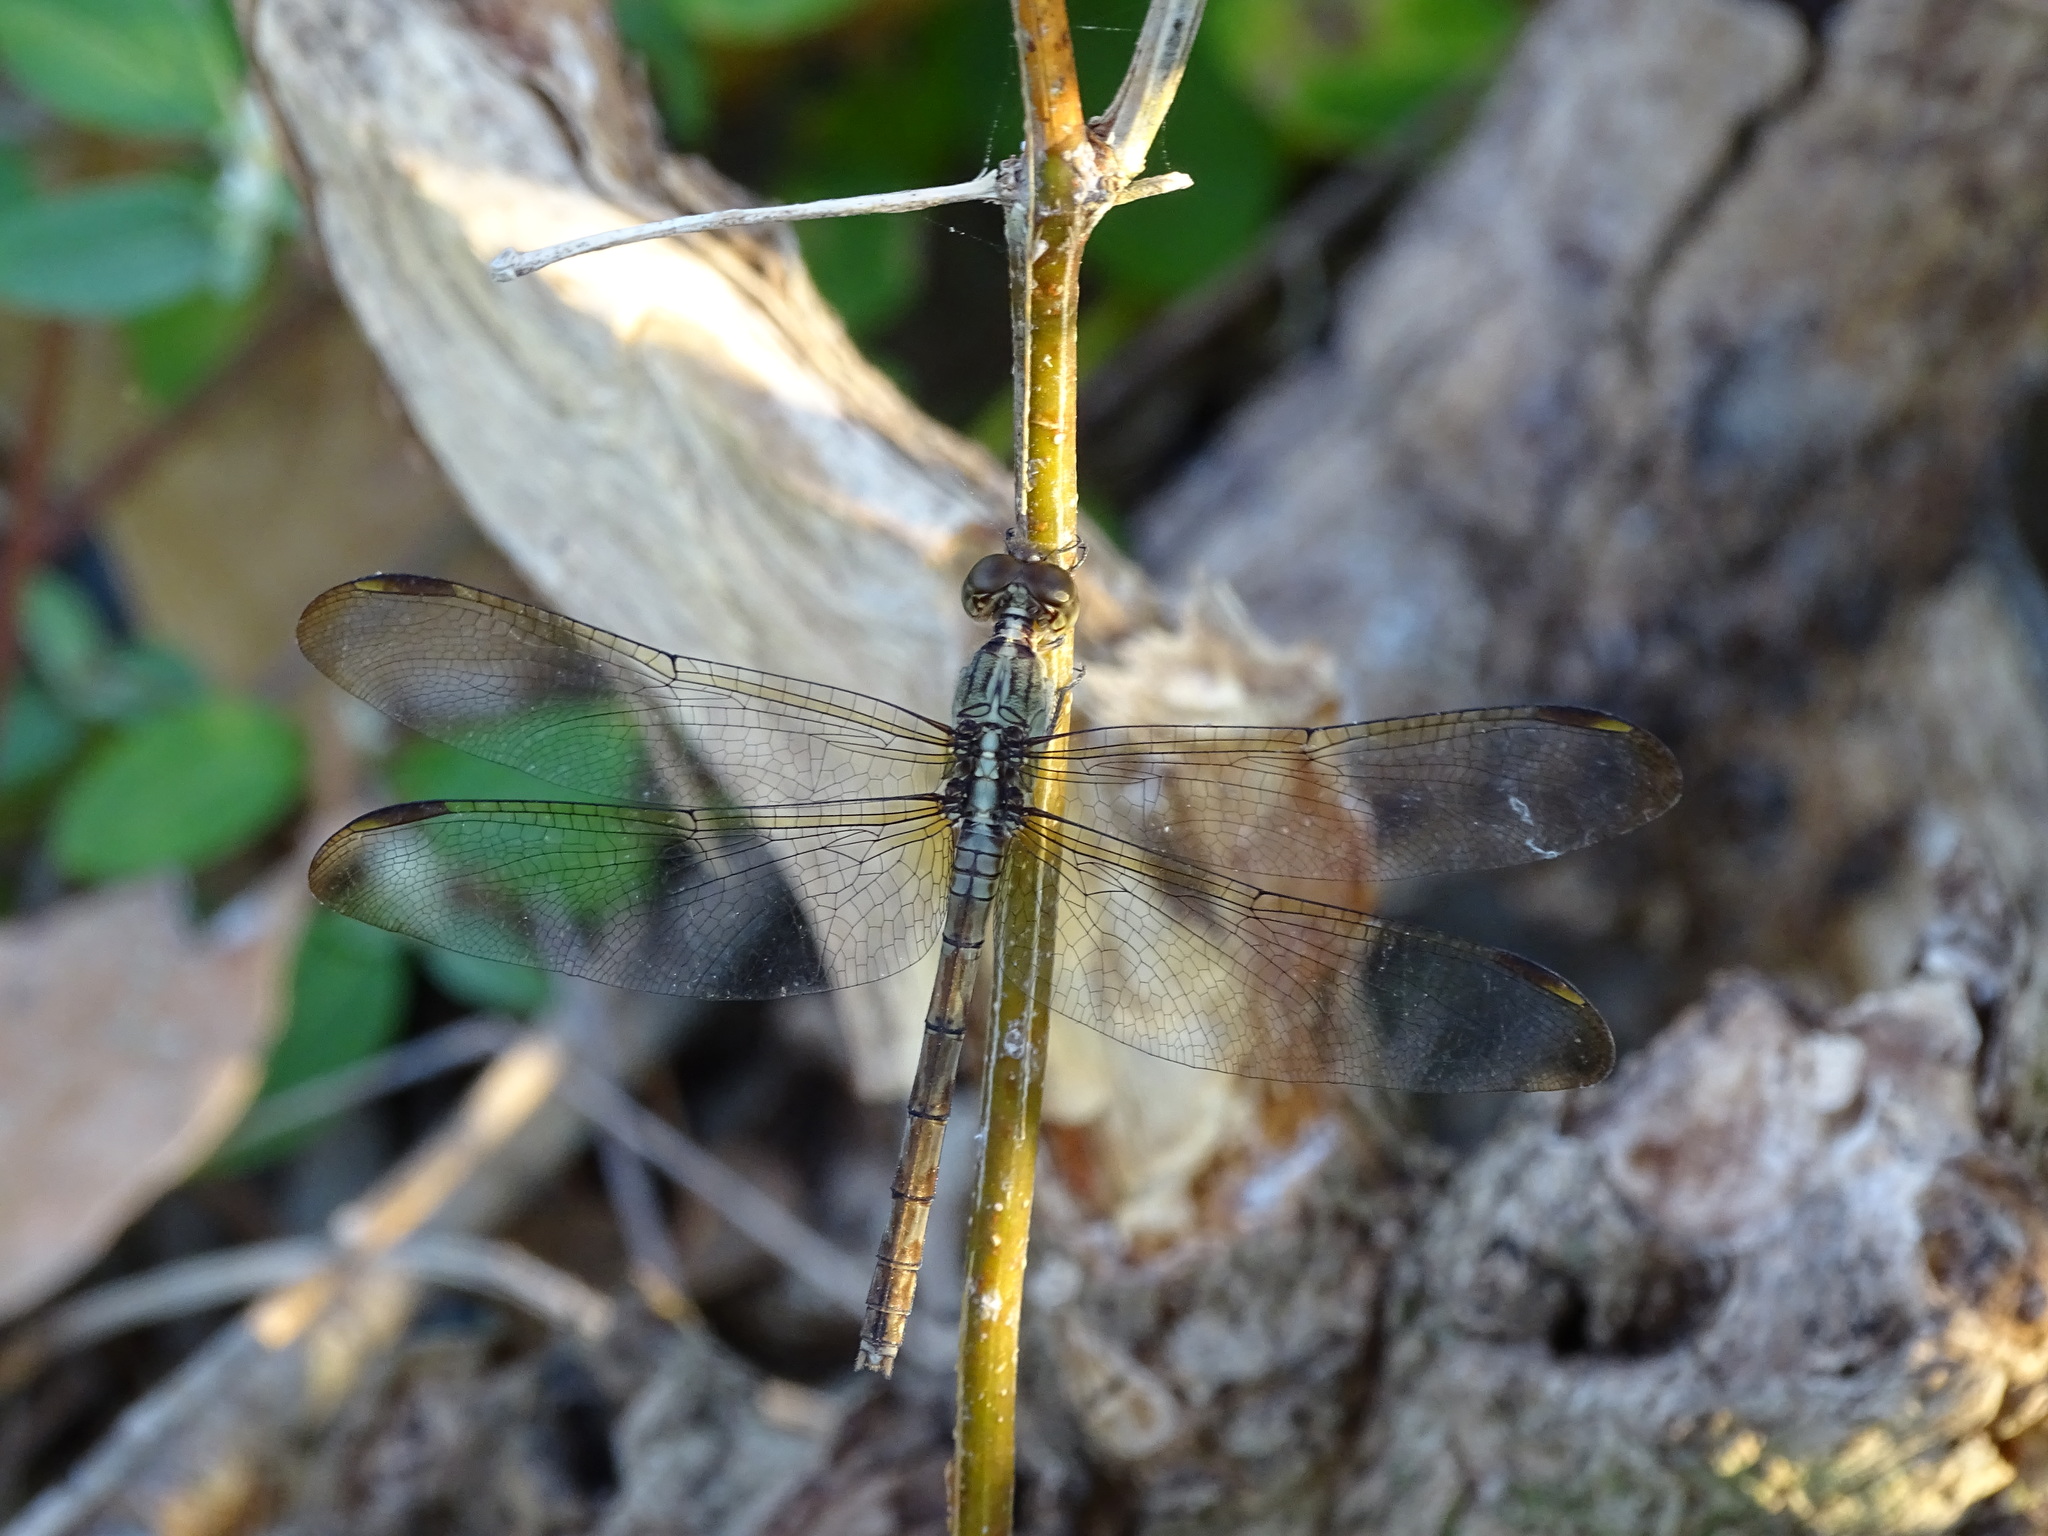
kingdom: Animalia
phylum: Arthropoda
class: Insecta
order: Odonata
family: Libellulidae
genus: Erythrodiplax
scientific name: Erythrodiplax umbrata
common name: Band-winged dragonlet
